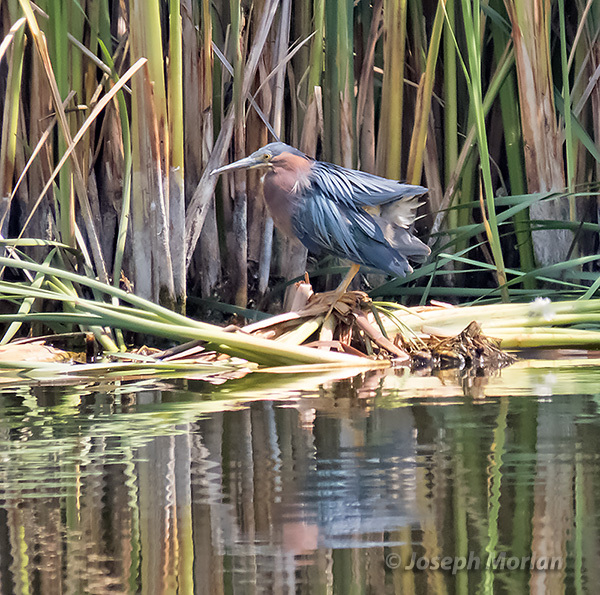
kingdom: Animalia
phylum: Chordata
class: Aves
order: Pelecaniformes
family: Ardeidae
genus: Butorides
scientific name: Butorides virescens
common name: Green heron
